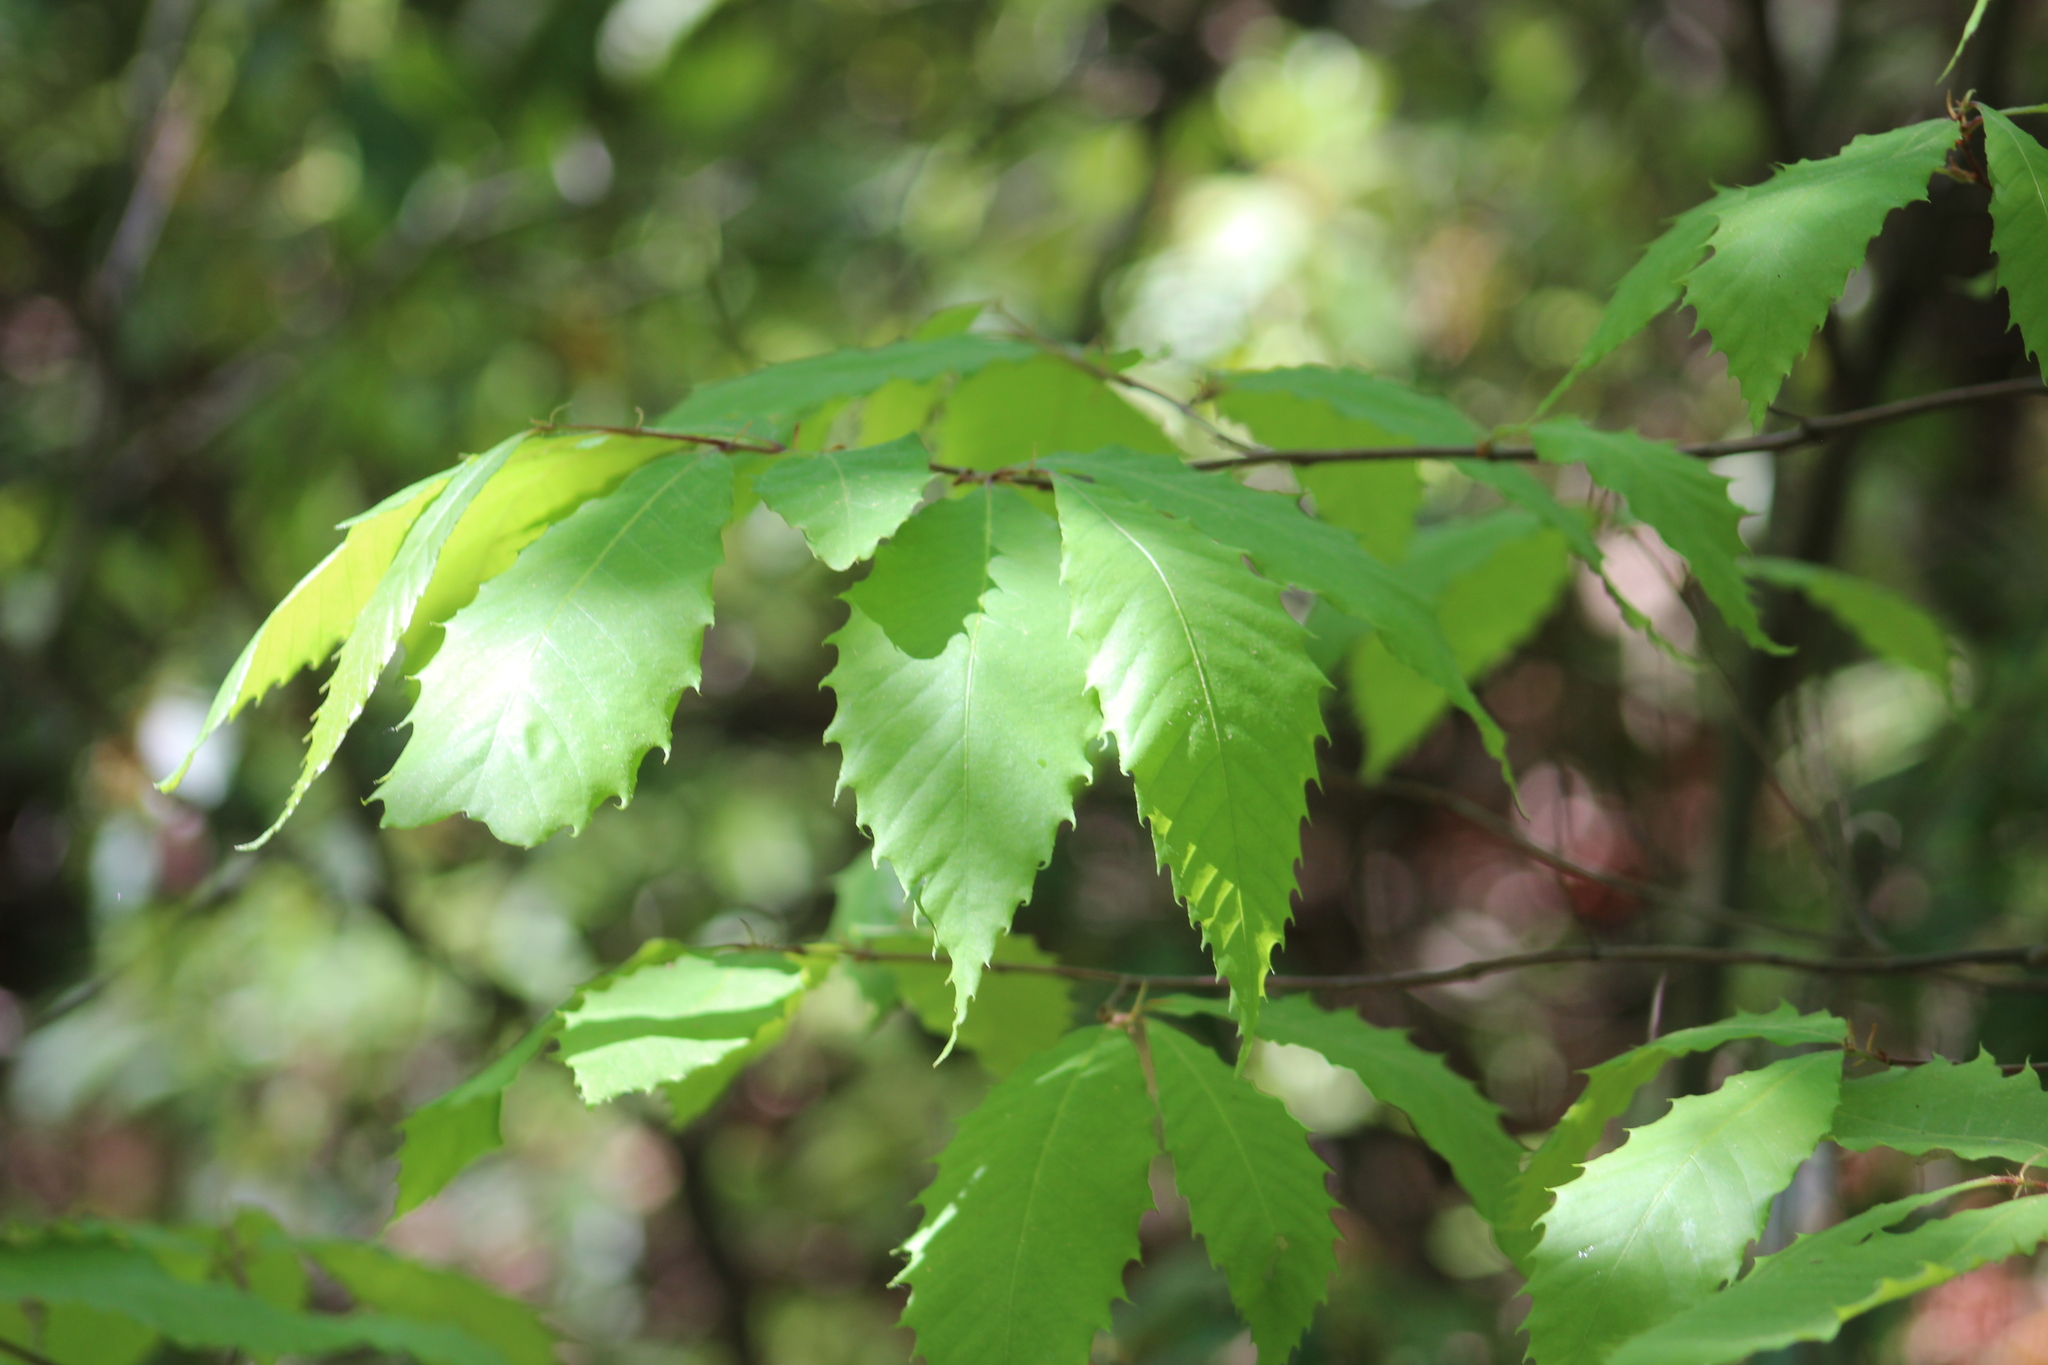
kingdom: Plantae
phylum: Tracheophyta
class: Magnoliopsida
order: Fagales
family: Fagaceae
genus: Castanea
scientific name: Castanea dentata
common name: American chestnut
